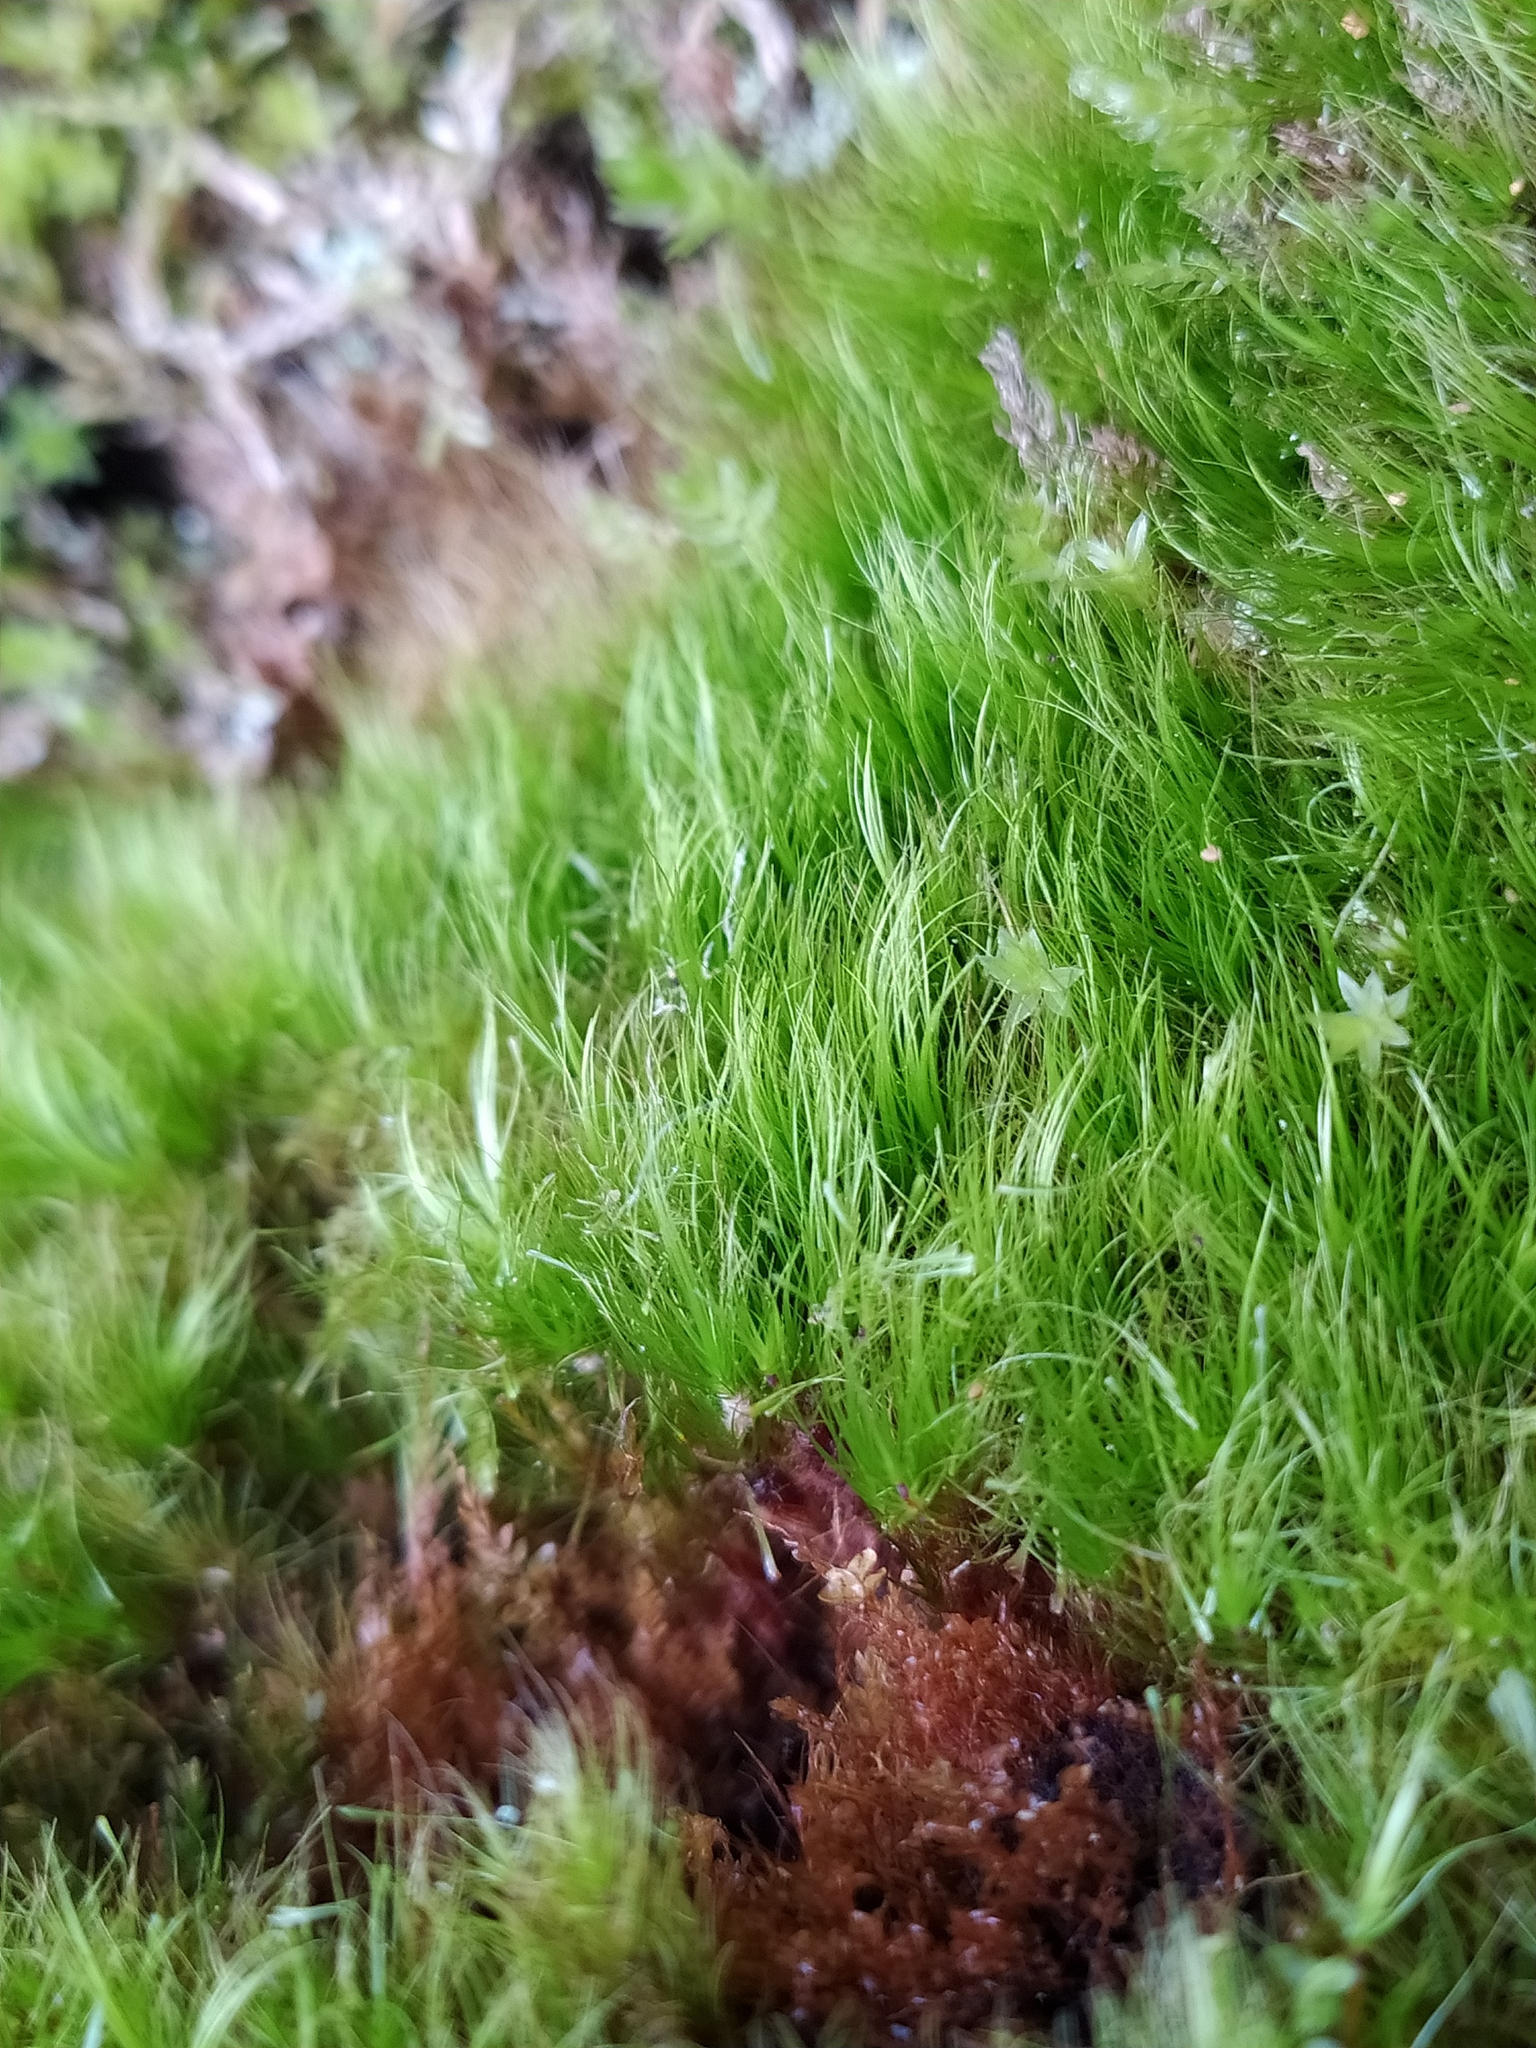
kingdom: Plantae
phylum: Bryophyta
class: Bryopsida
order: Dicranales
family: Leucobryaceae
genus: Dicranodontium
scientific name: Dicranodontium denudatum
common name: Beaked bow moss
